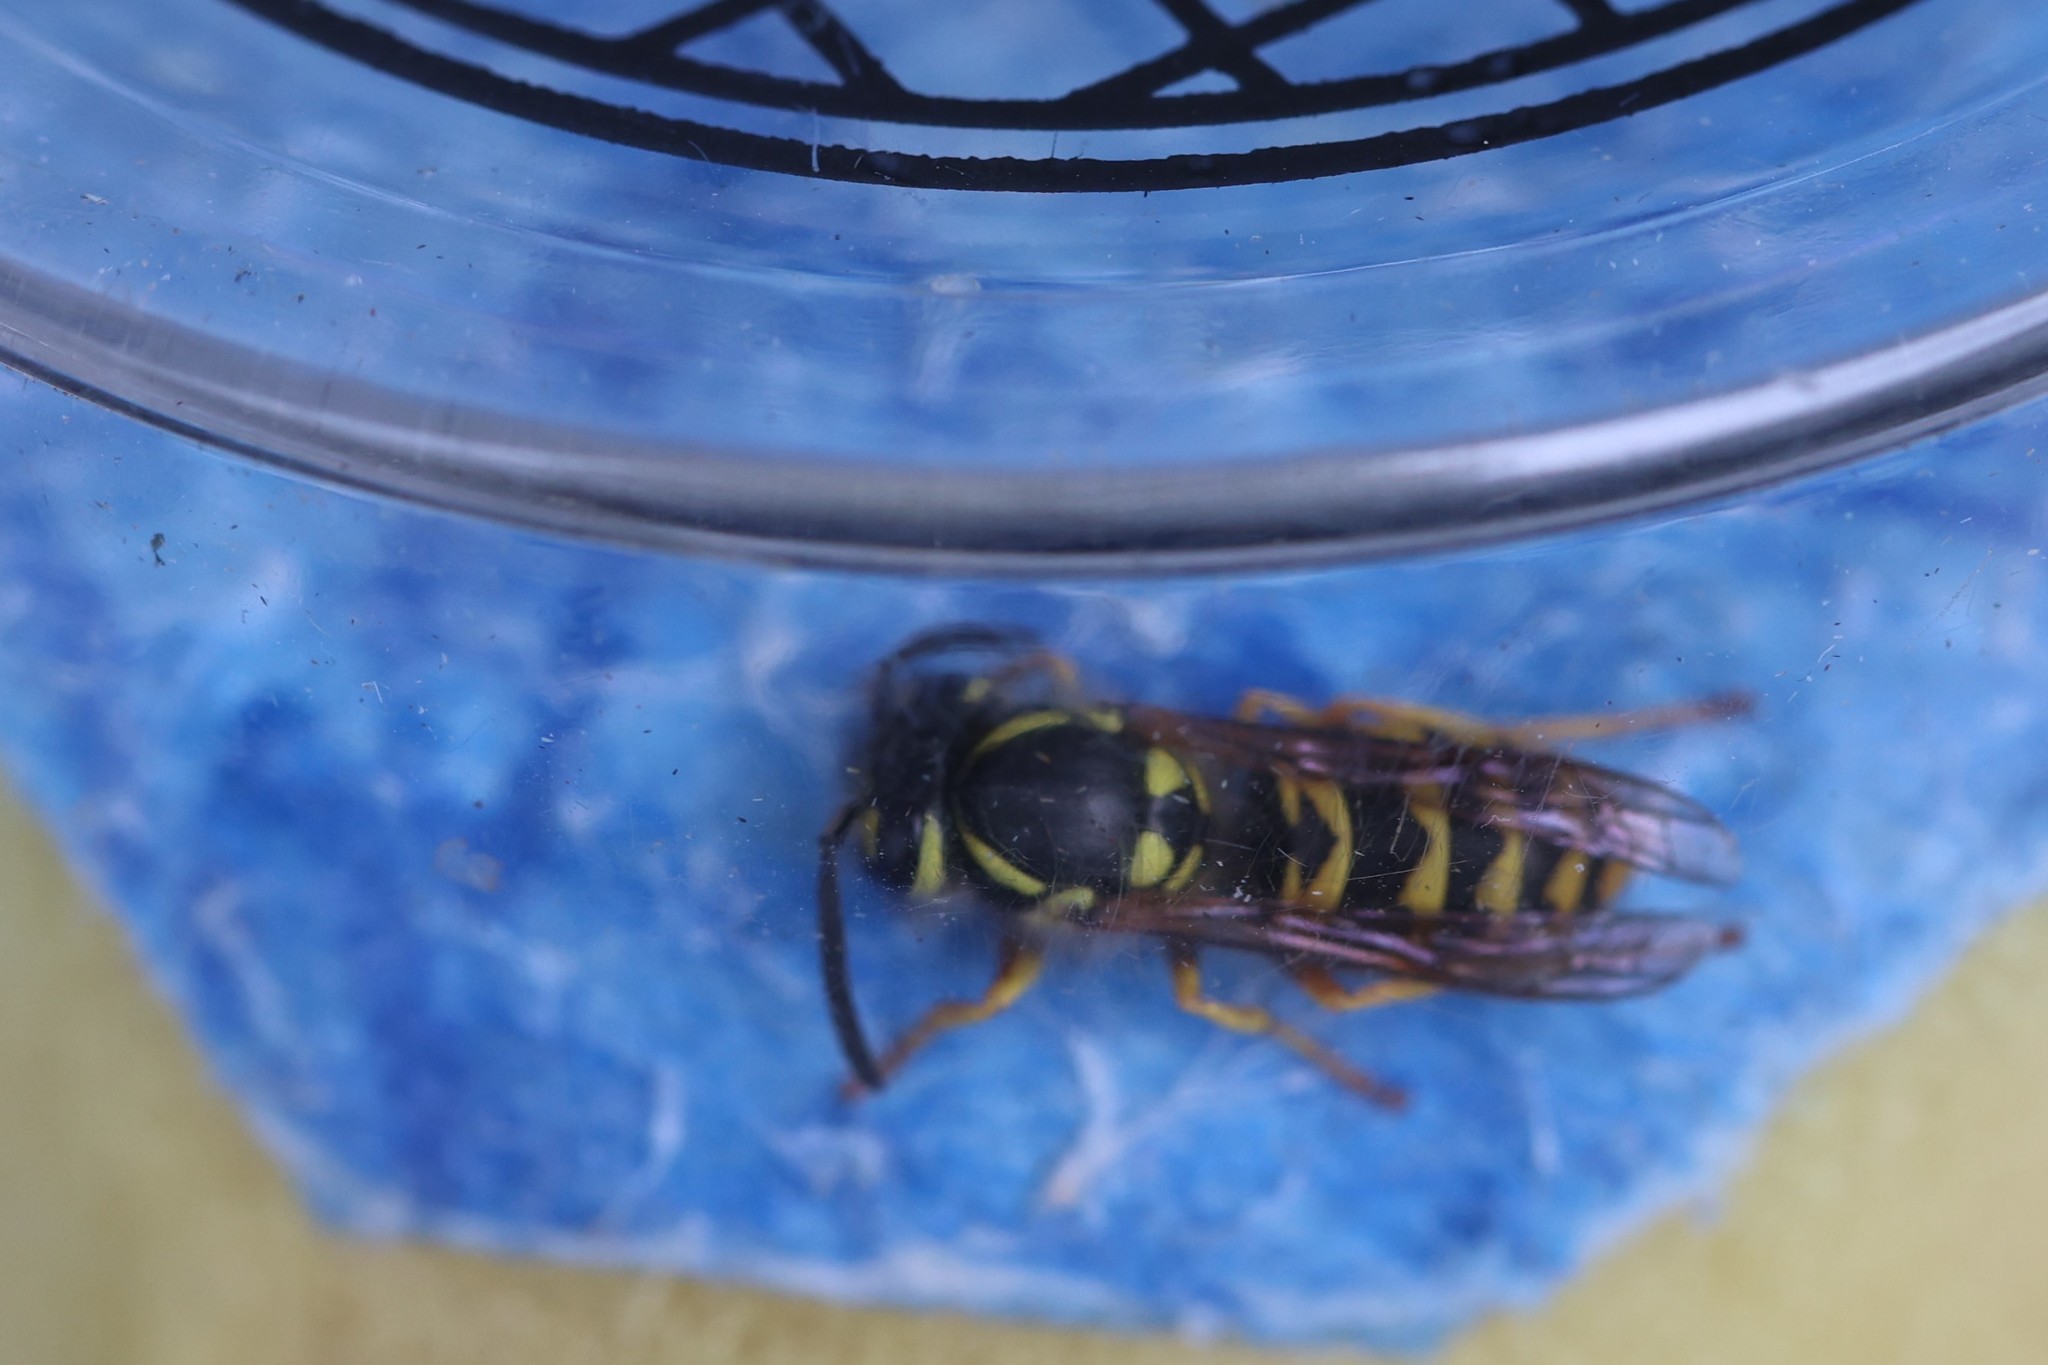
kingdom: Animalia
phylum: Arthropoda
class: Insecta
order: Hymenoptera
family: Vespidae
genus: Vespula
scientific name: Vespula germanica
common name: German wasp
